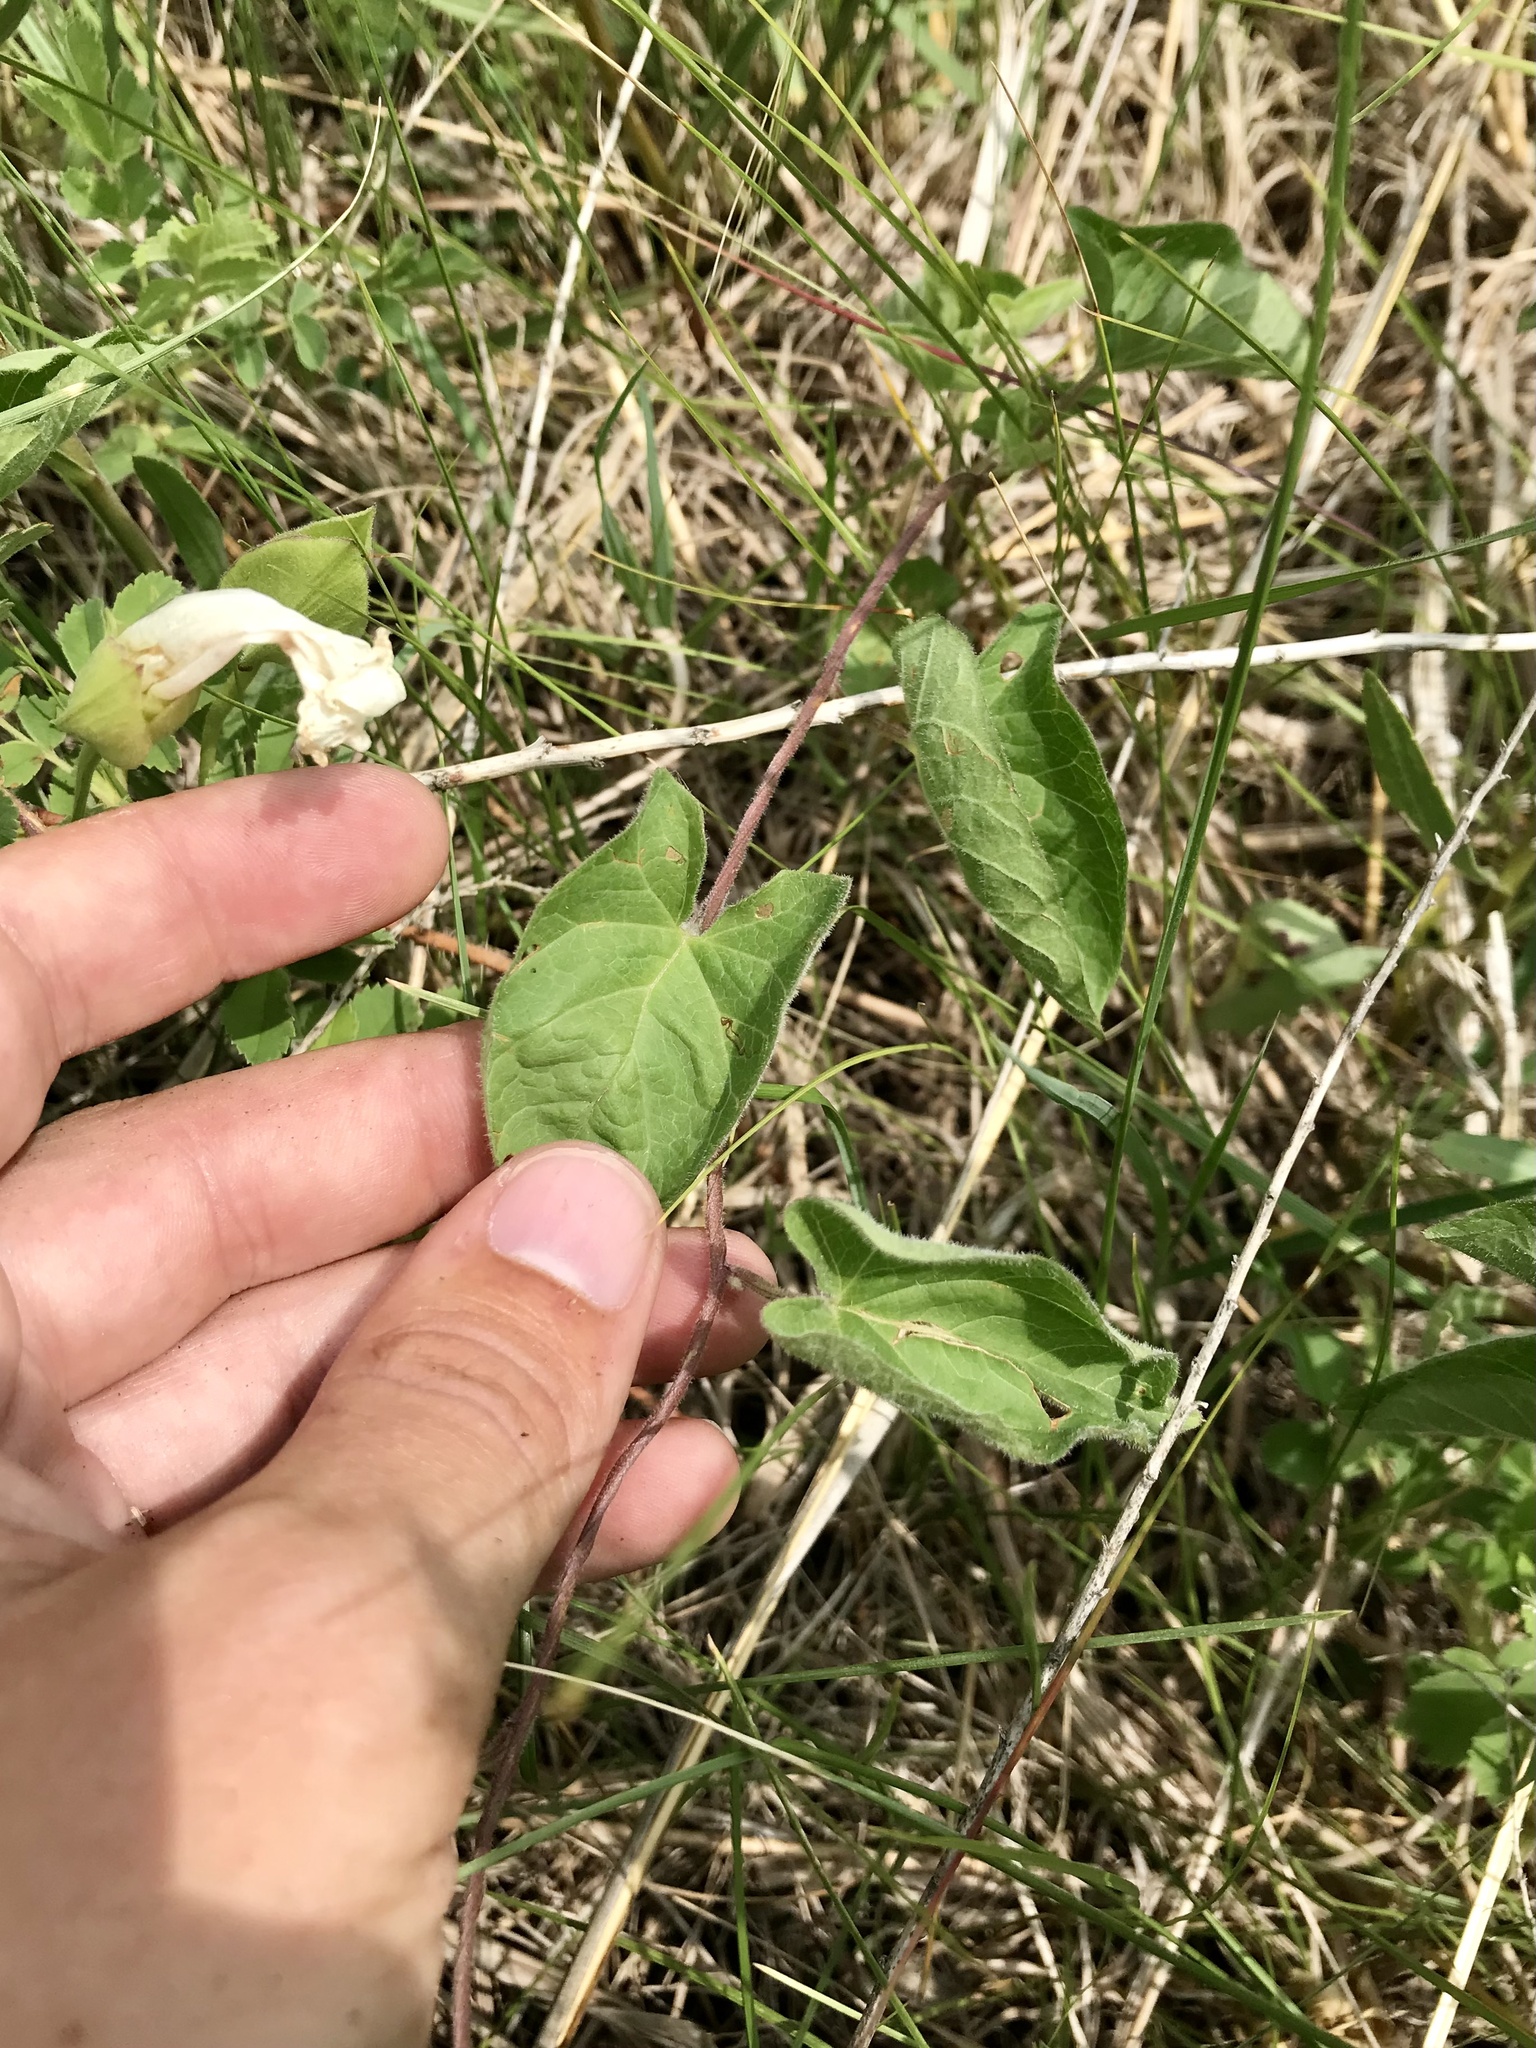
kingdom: Plantae
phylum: Tracheophyta
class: Magnoliopsida
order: Solanales
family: Convolvulaceae
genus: Calystegia
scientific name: Calystegia macounii
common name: Macoun's bindweed
